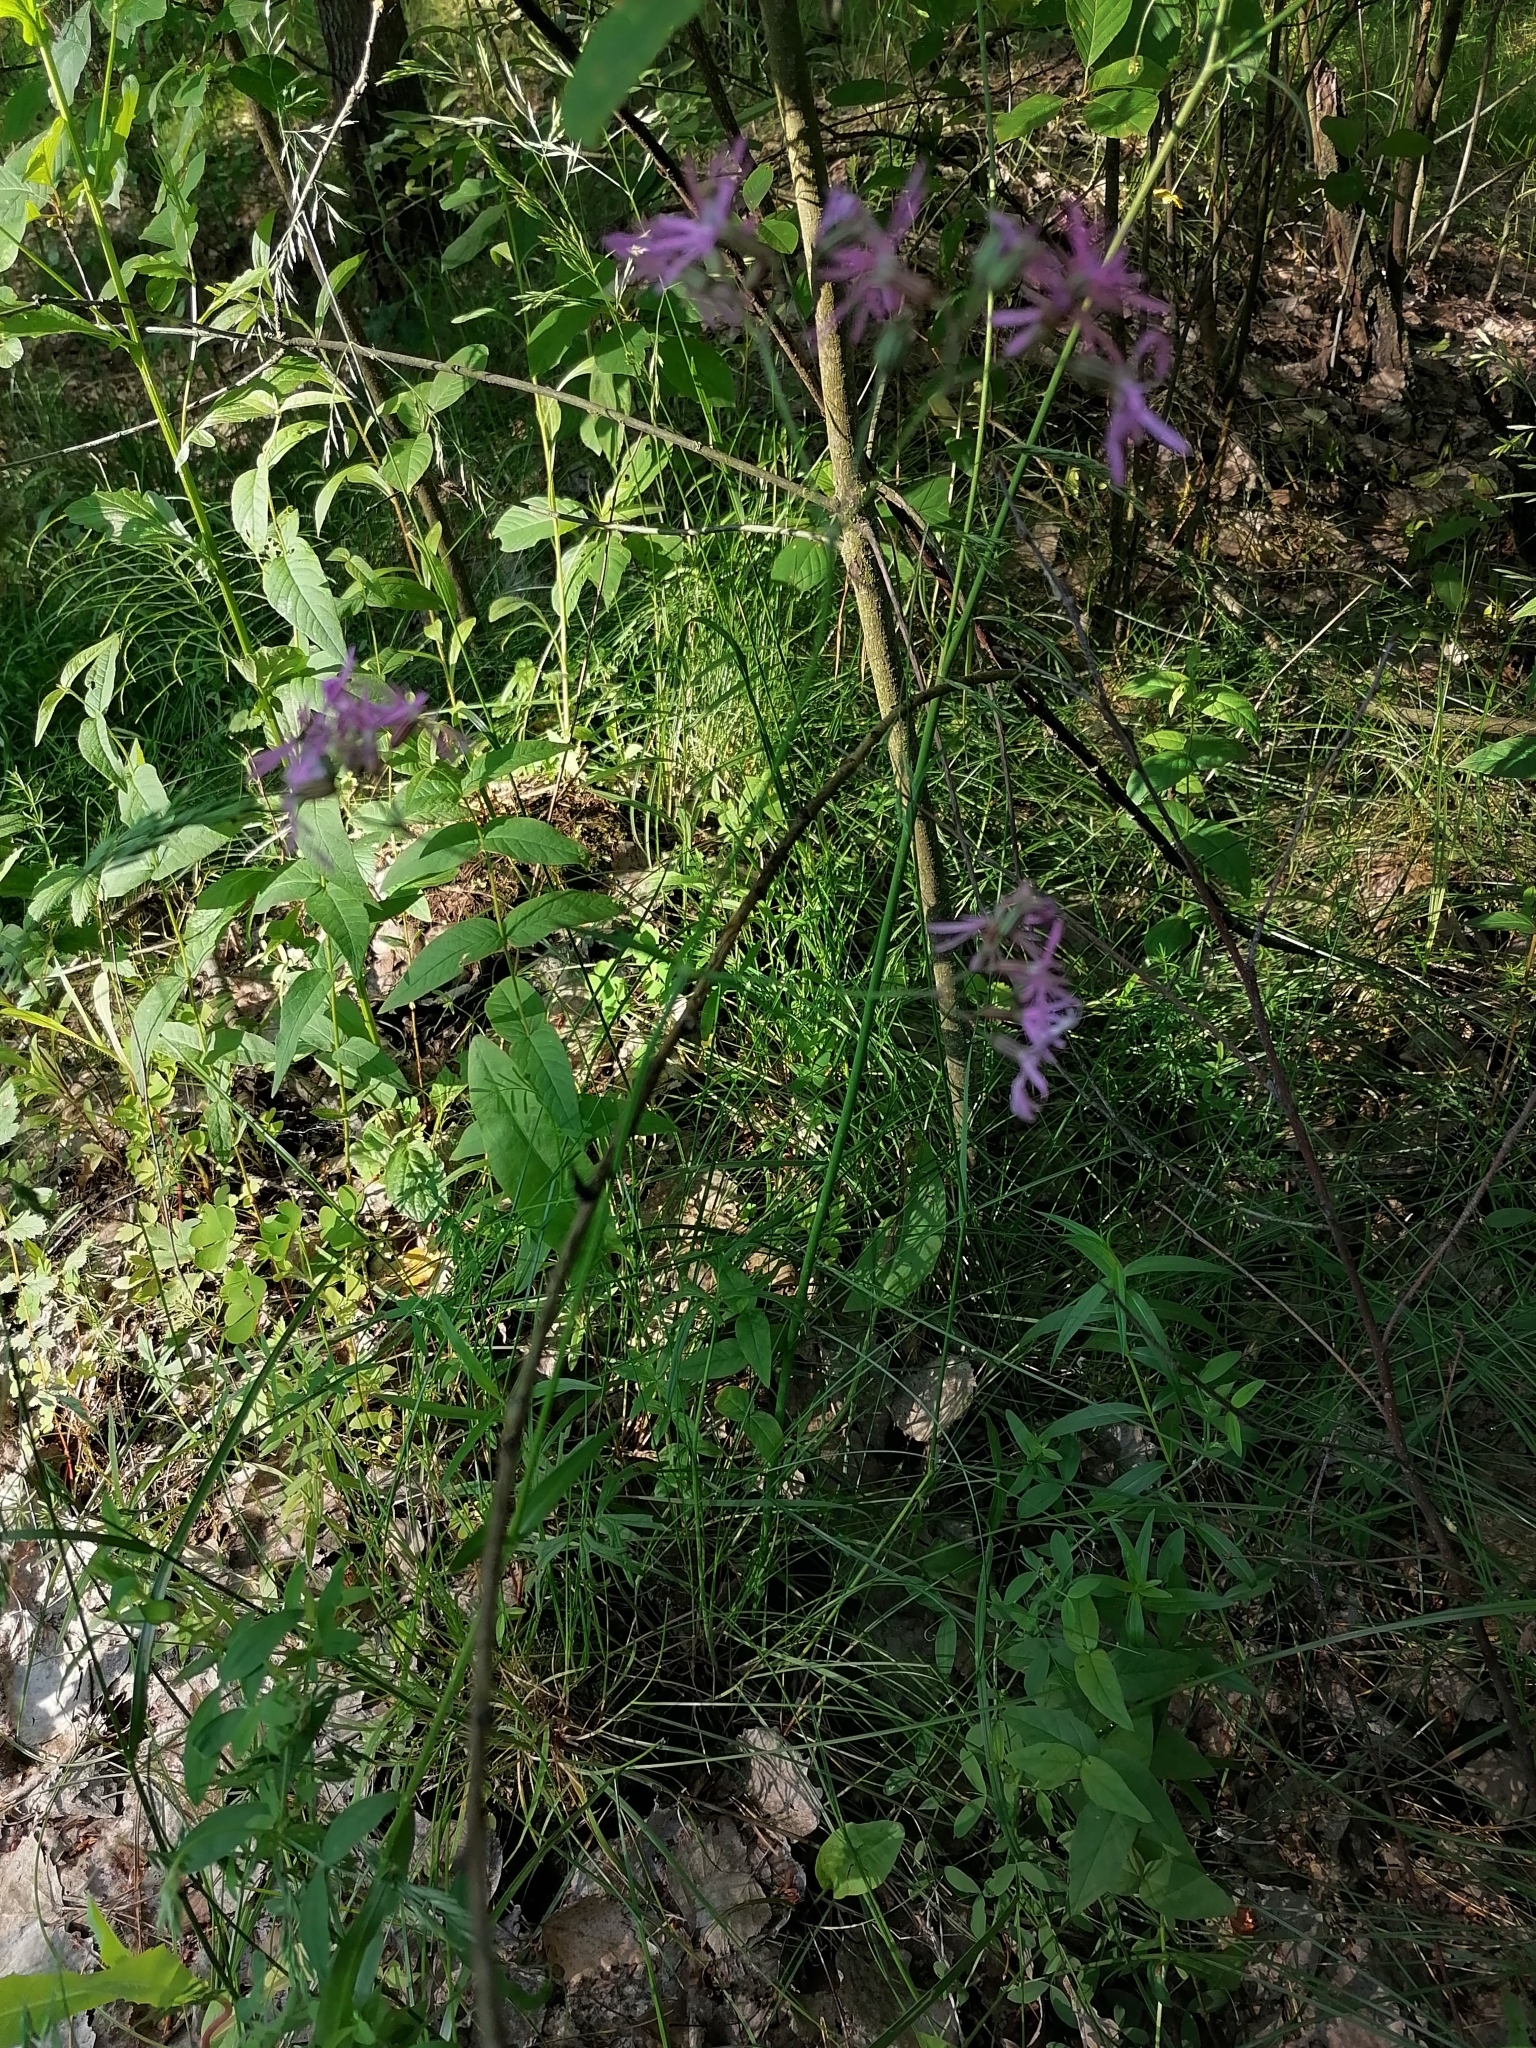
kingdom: Plantae
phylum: Tracheophyta
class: Magnoliopsida
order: Caryophyllales
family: Caryophyllaceae
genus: Silene
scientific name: Silene flos-cuculi
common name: Ragged-robin
